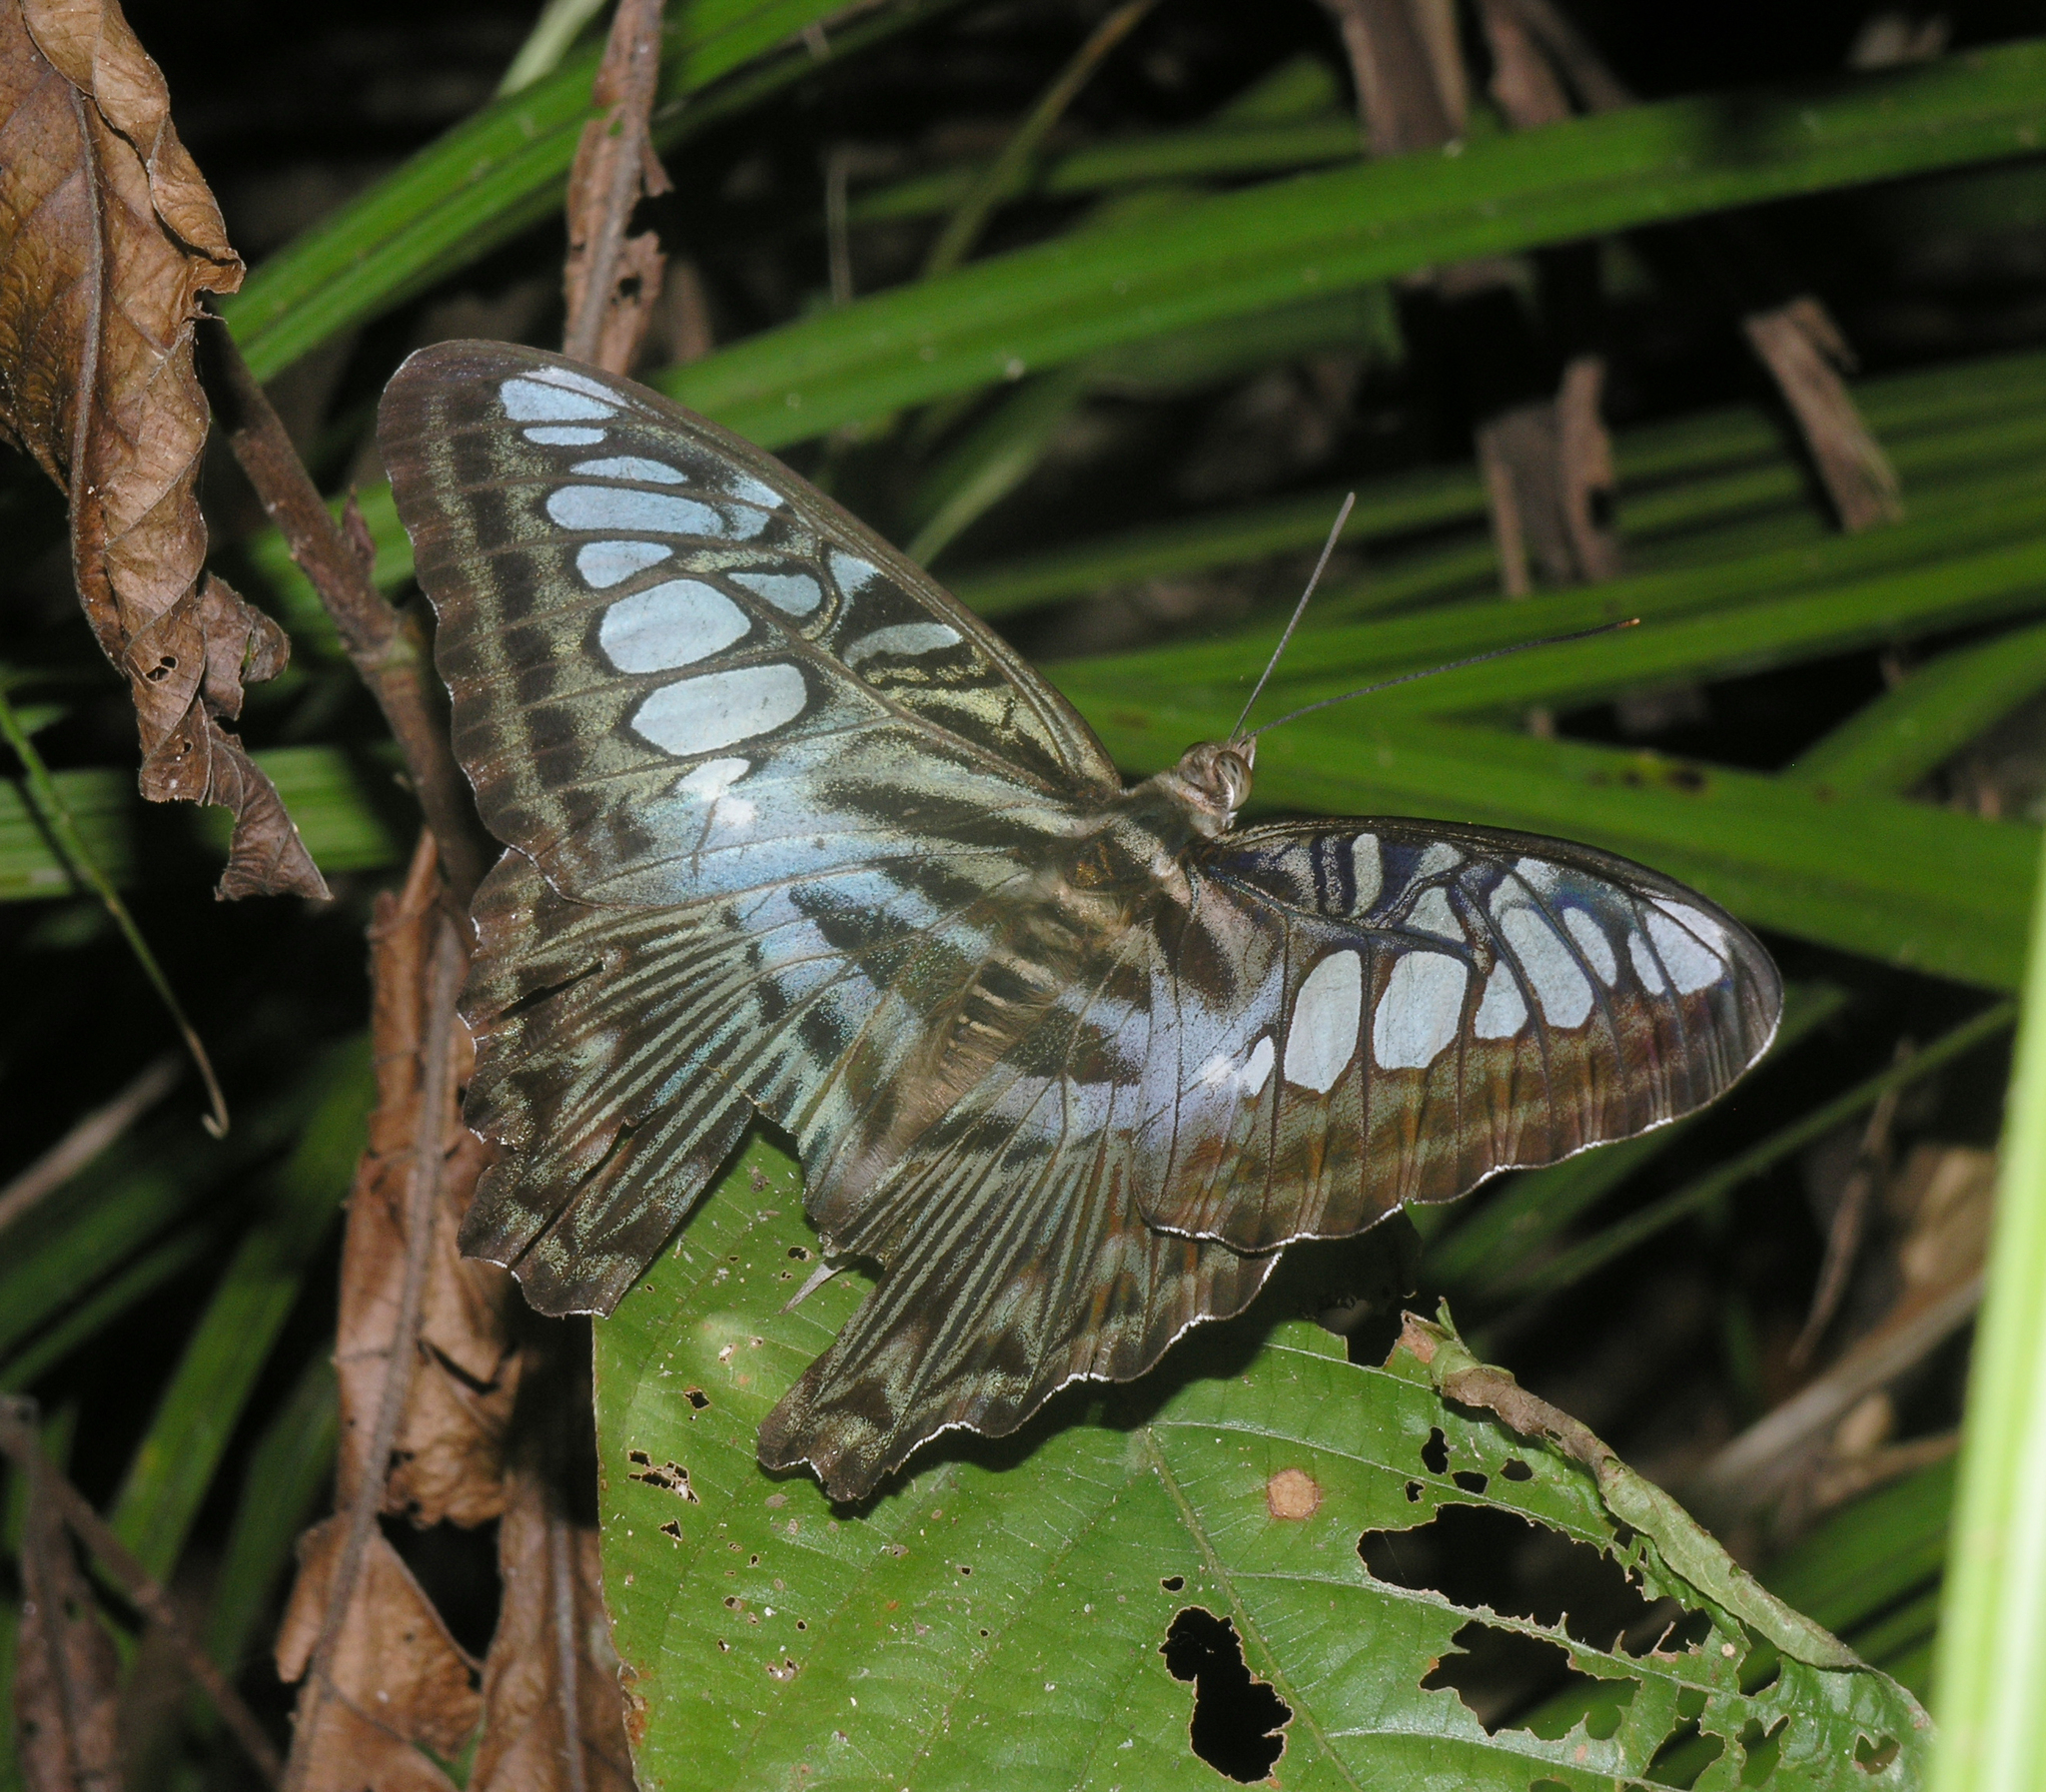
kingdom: Animalia
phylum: Arthropoda
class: Insecta
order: Lepidoptera
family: Nymphalidae
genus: Kallima
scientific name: Kallima sylvia
